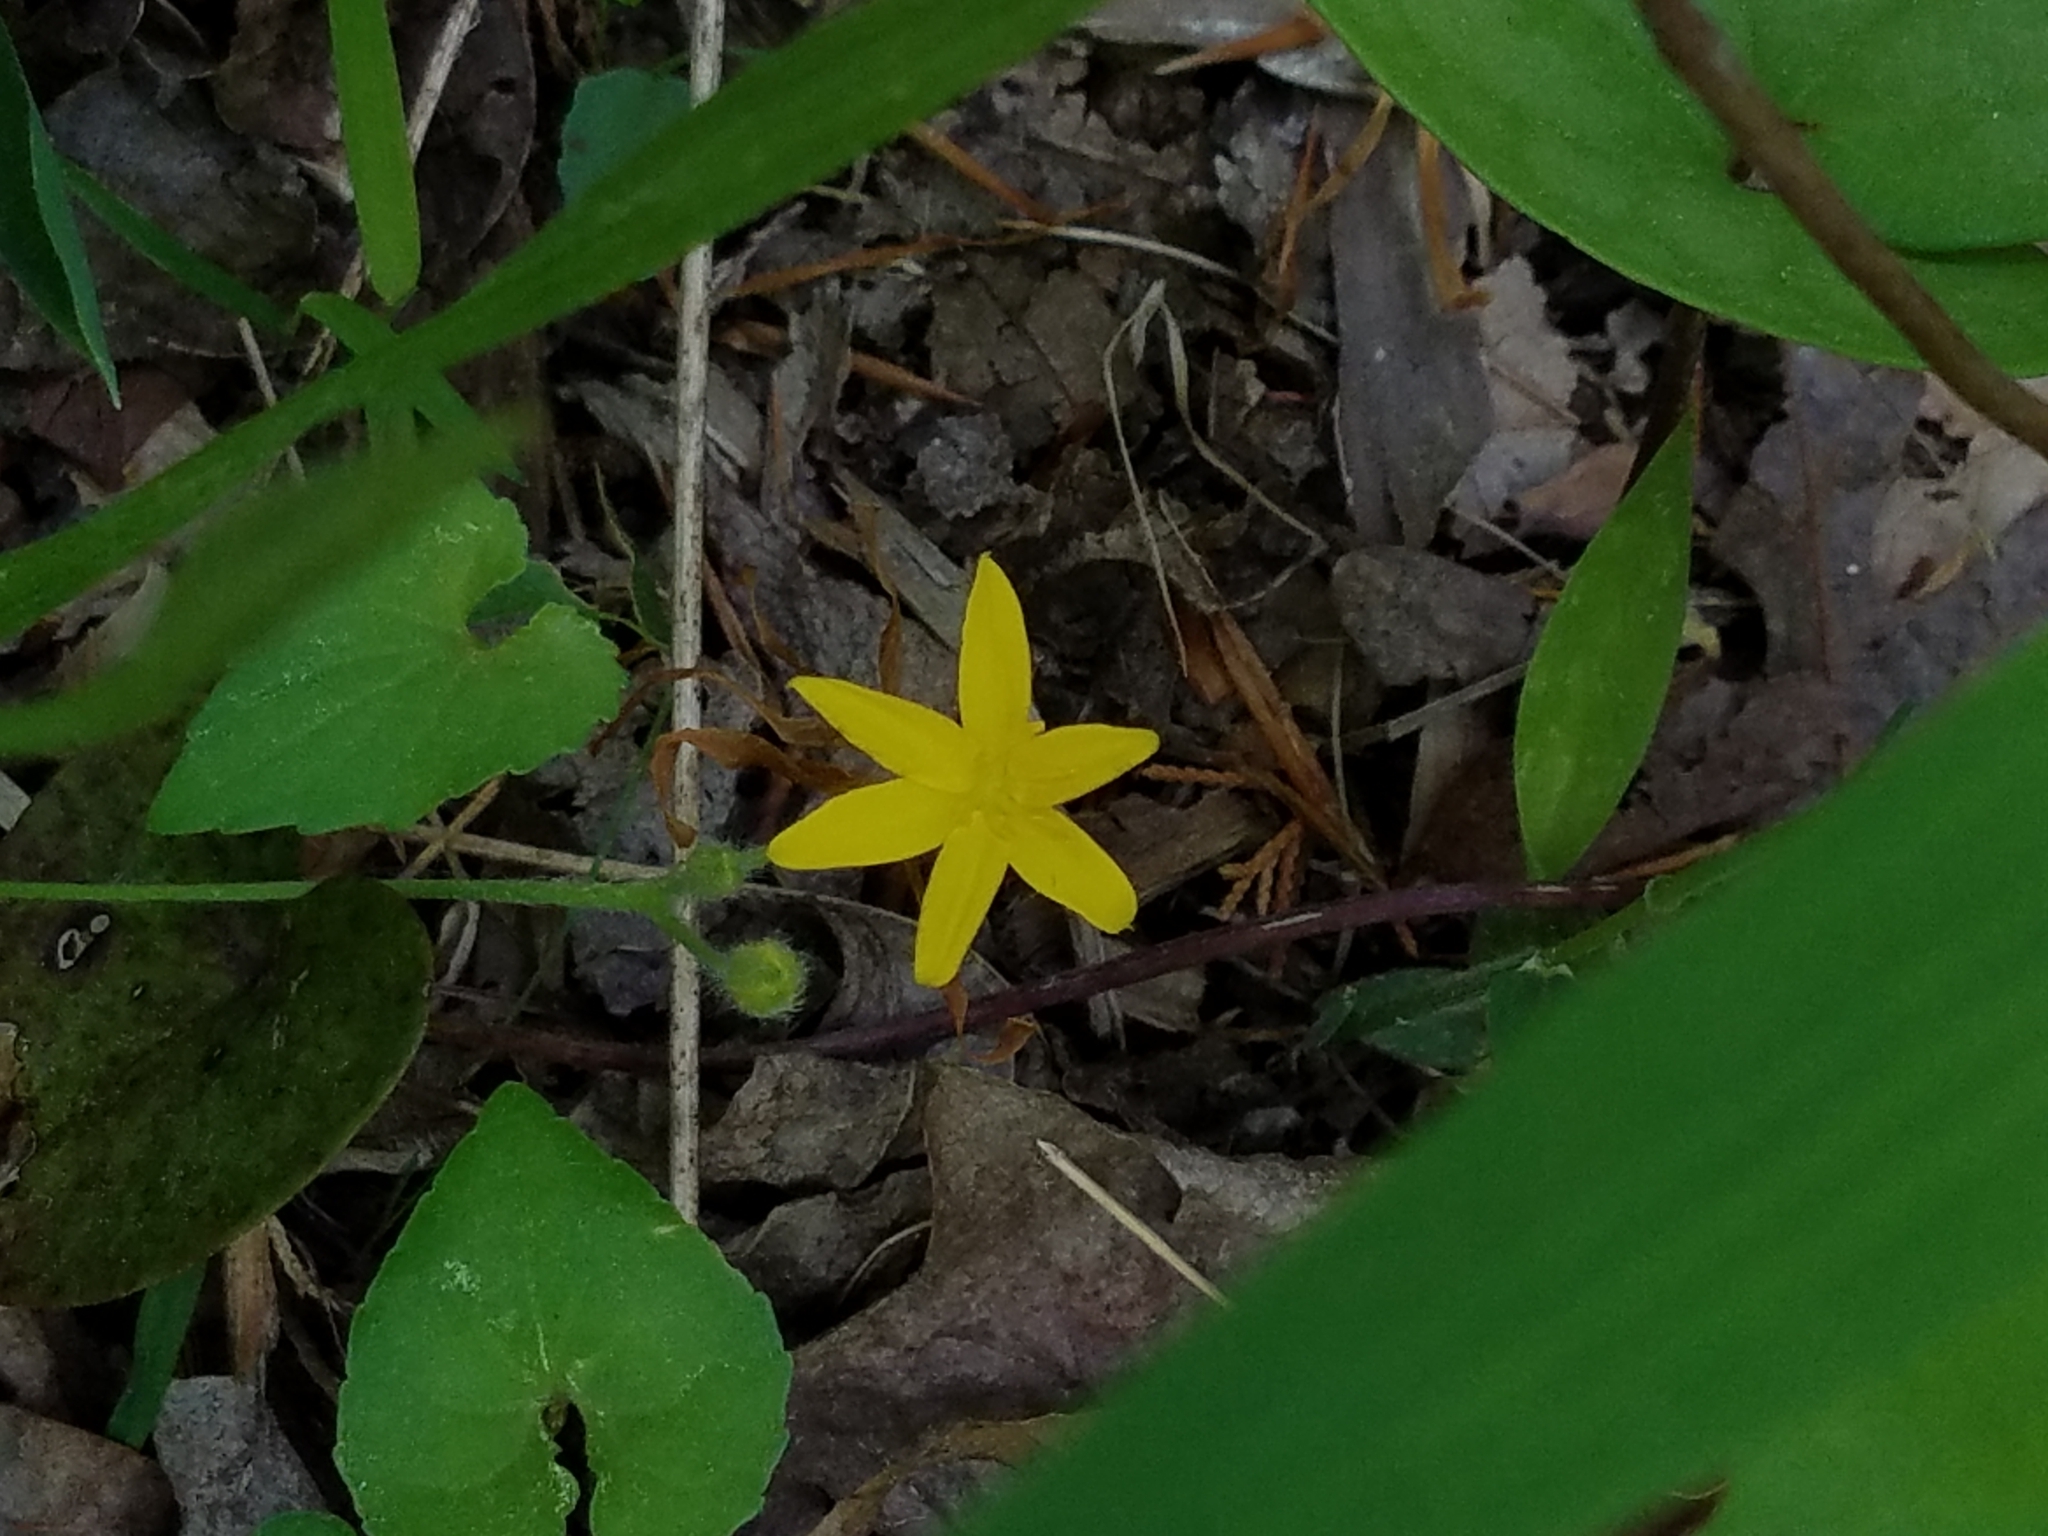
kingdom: Plantae
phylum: Tracheophyta
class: Liliopsida
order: Asparagales
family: Hypoxidaceae
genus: Hypoxis
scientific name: Hypoxis hirsuta
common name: Common goldstar
